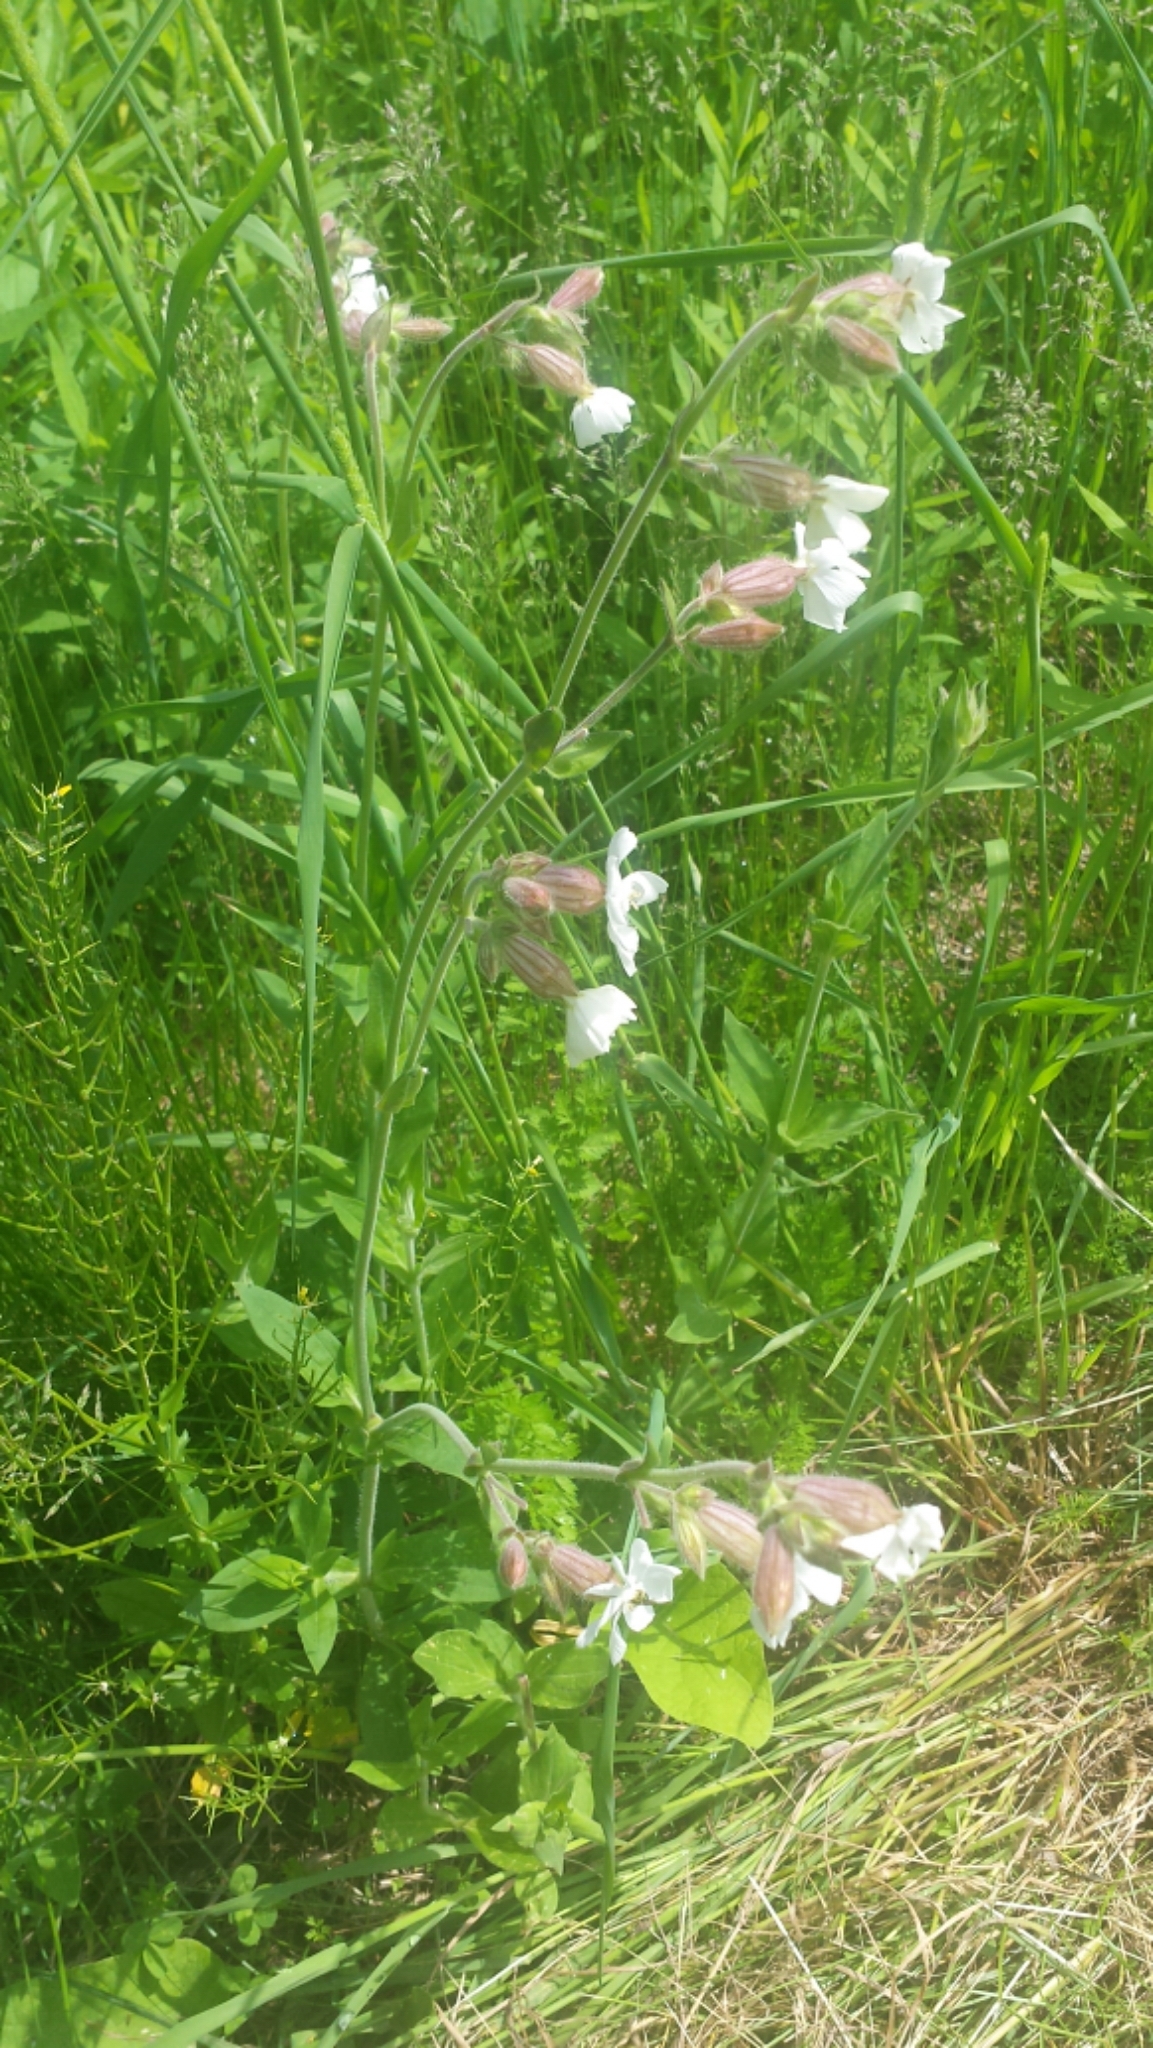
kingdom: Plantae
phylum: Tracheophyta
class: Magnoliopsida
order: Caryophyllales
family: Caryophyllaceae
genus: Silene
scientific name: Silene latifolia
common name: White campion
